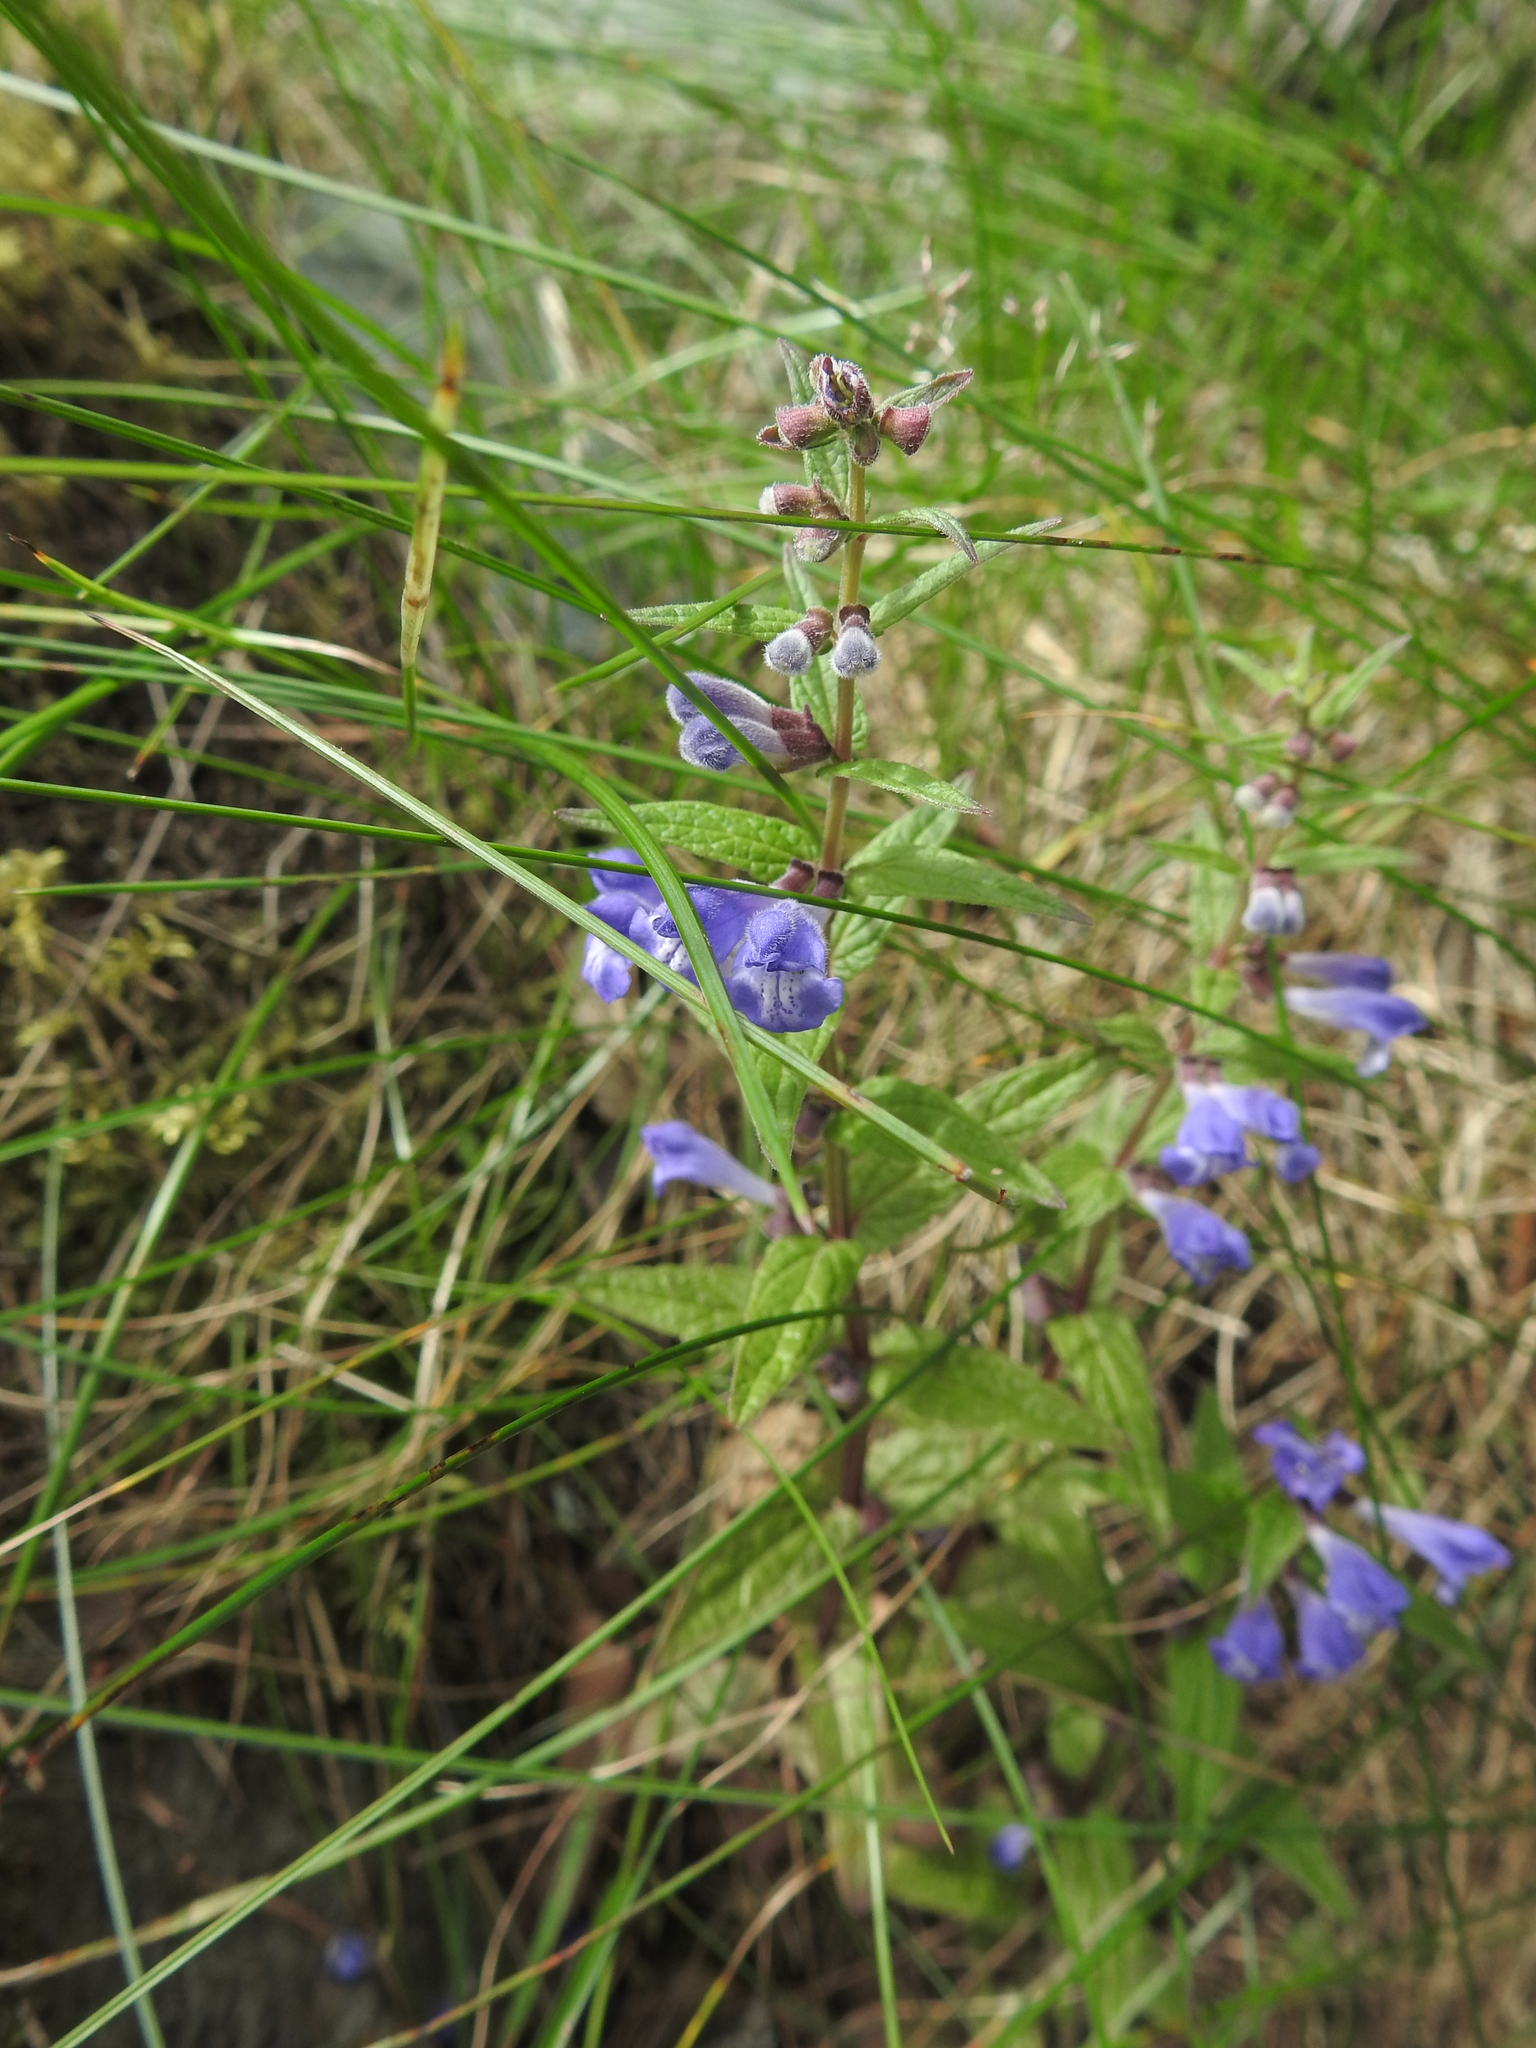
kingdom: Plantae
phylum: Tracheophyta
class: Magnoliopsida
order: Lamiales
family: Lamiaceae
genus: Scutellaria
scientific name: Scutellaria galericulata
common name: Skullcap
